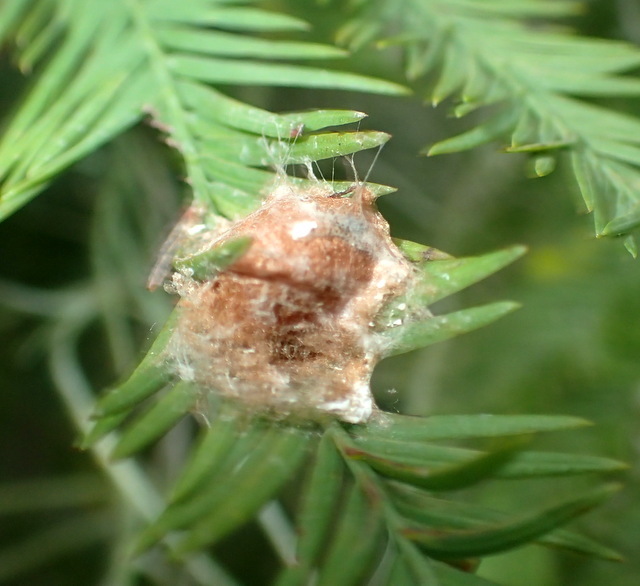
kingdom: Animalia
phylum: Arthropoda
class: Insecta
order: Diptera
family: Cecidomyiidae
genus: Taxodiomyia
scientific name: Taxodiomyia cupressiananassa
